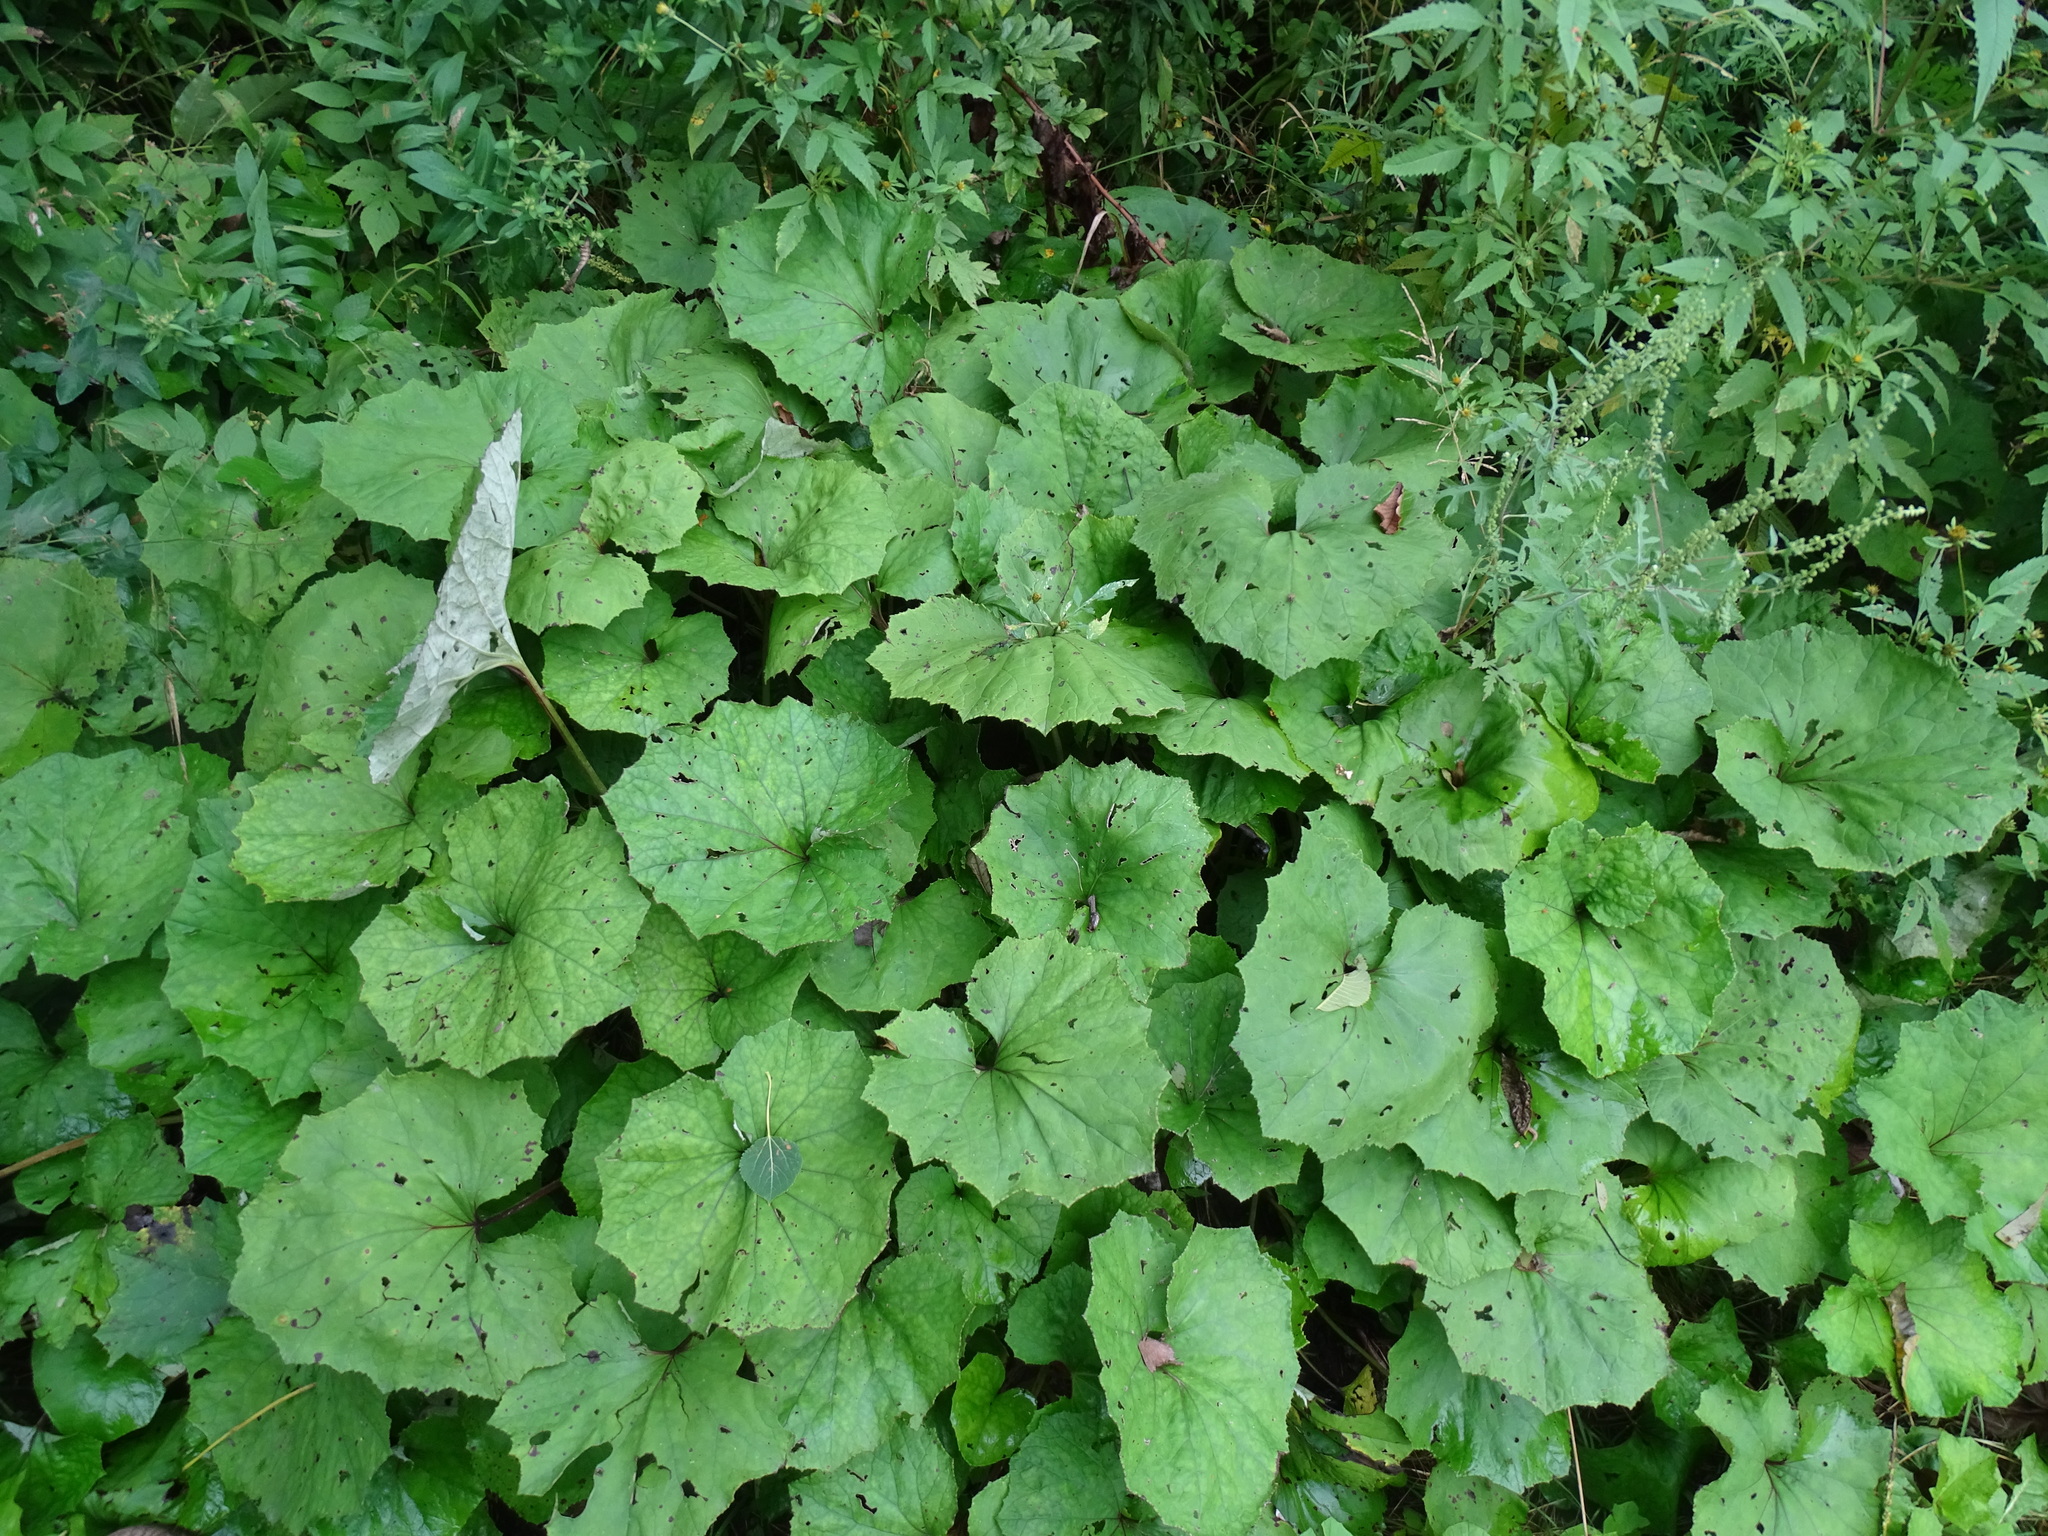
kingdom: Plantae
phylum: Tracheophyta
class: Magnoliopsida
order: Asterales
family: Asteraceae
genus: Tussilago
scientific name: Tussilago farfara
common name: Coltsfoot
